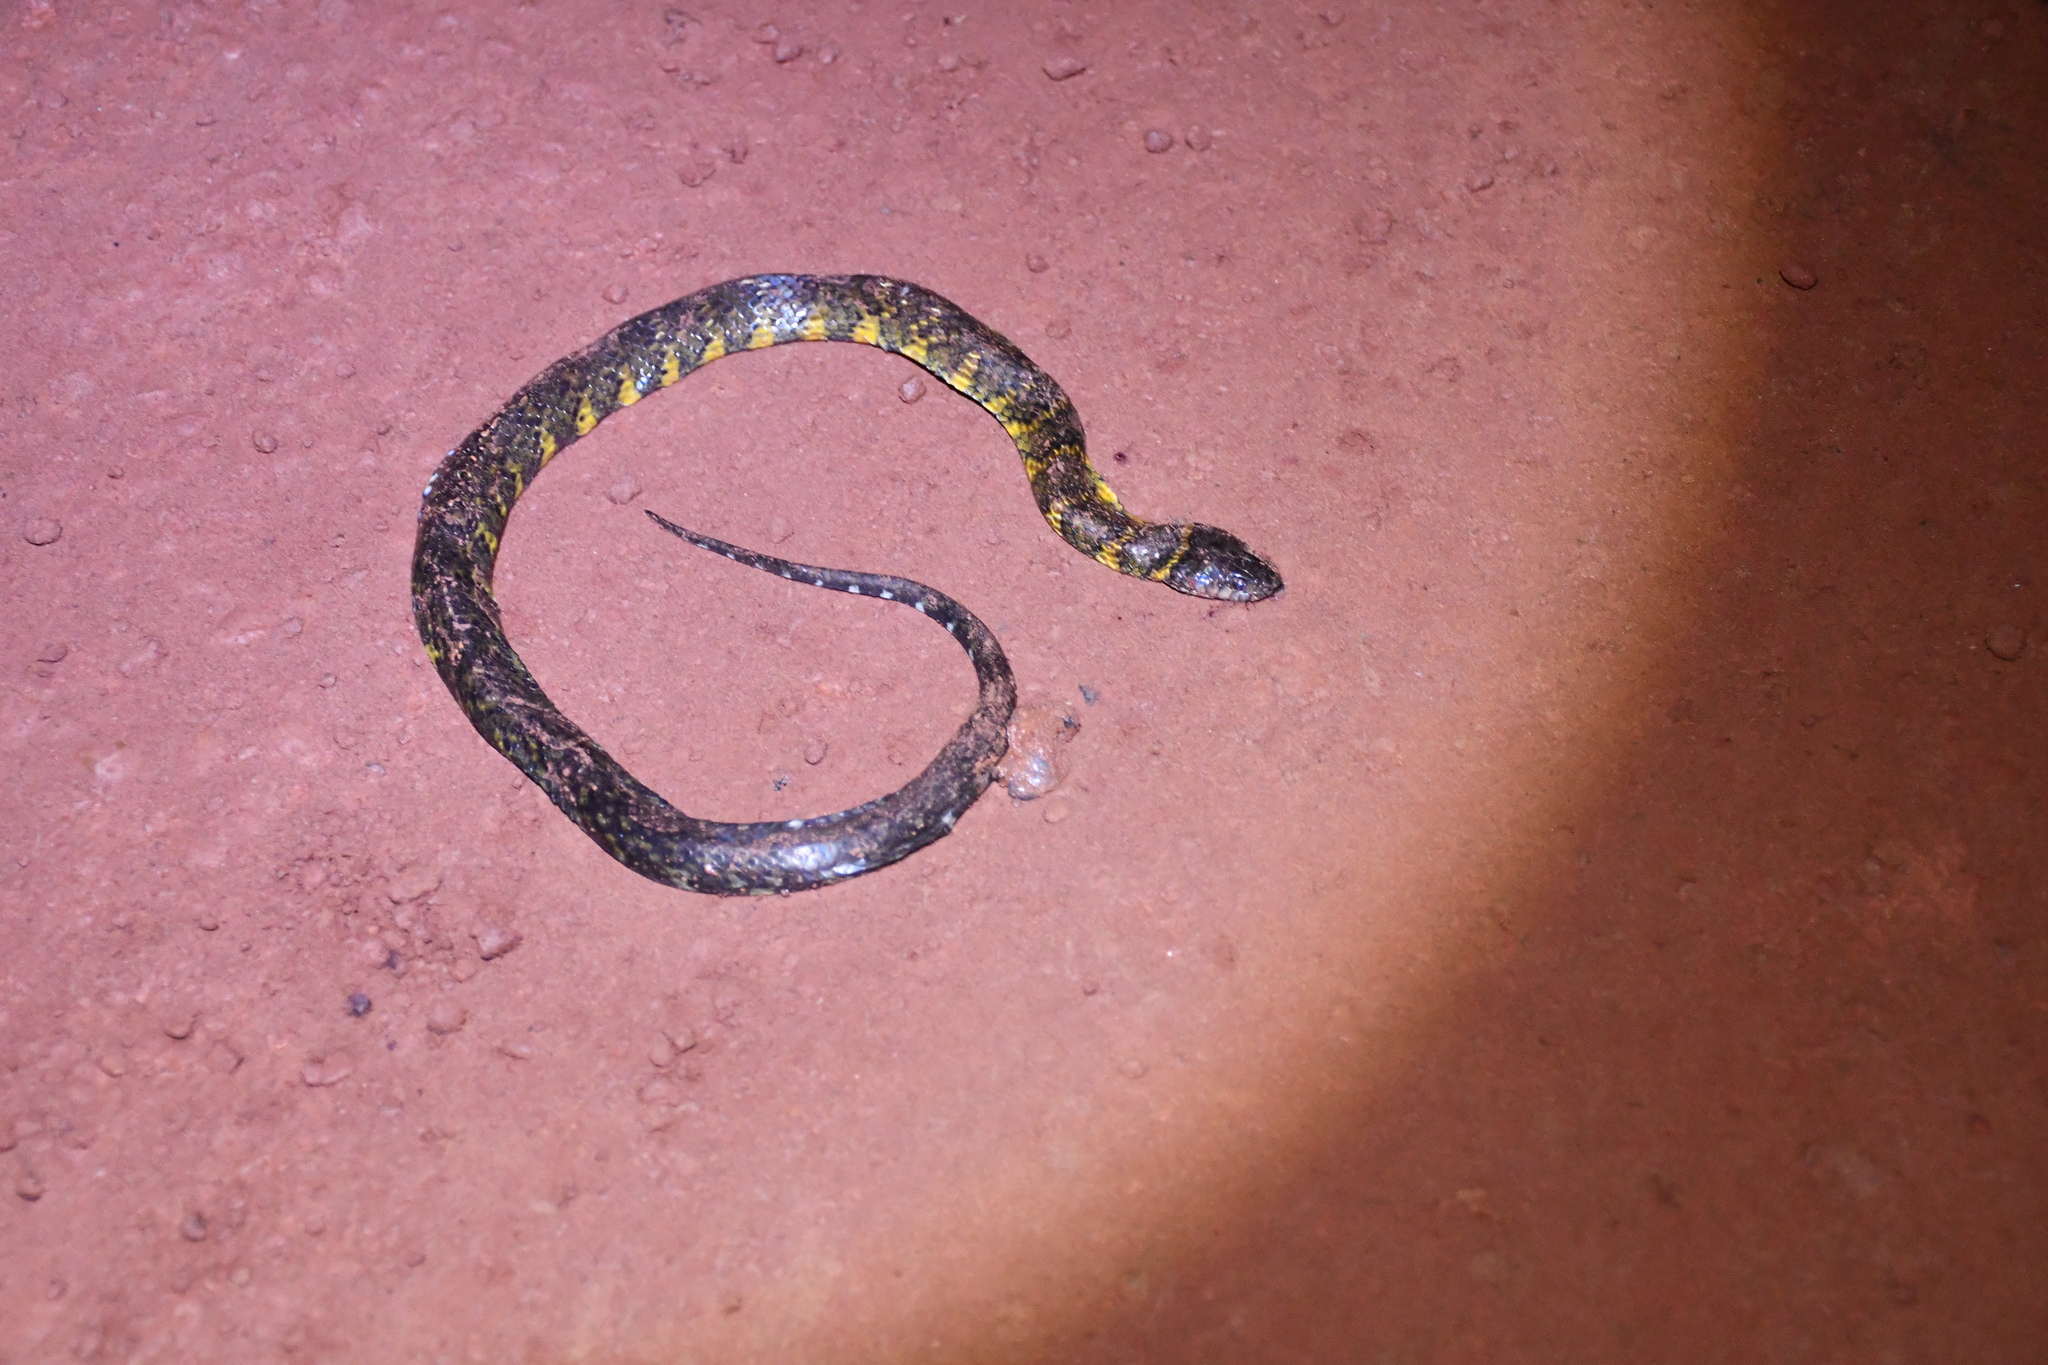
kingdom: Animalia
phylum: Chordata
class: Squamata
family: Colubridae
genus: Erythrolamprus
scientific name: Erythrolamprus taeniogaster
